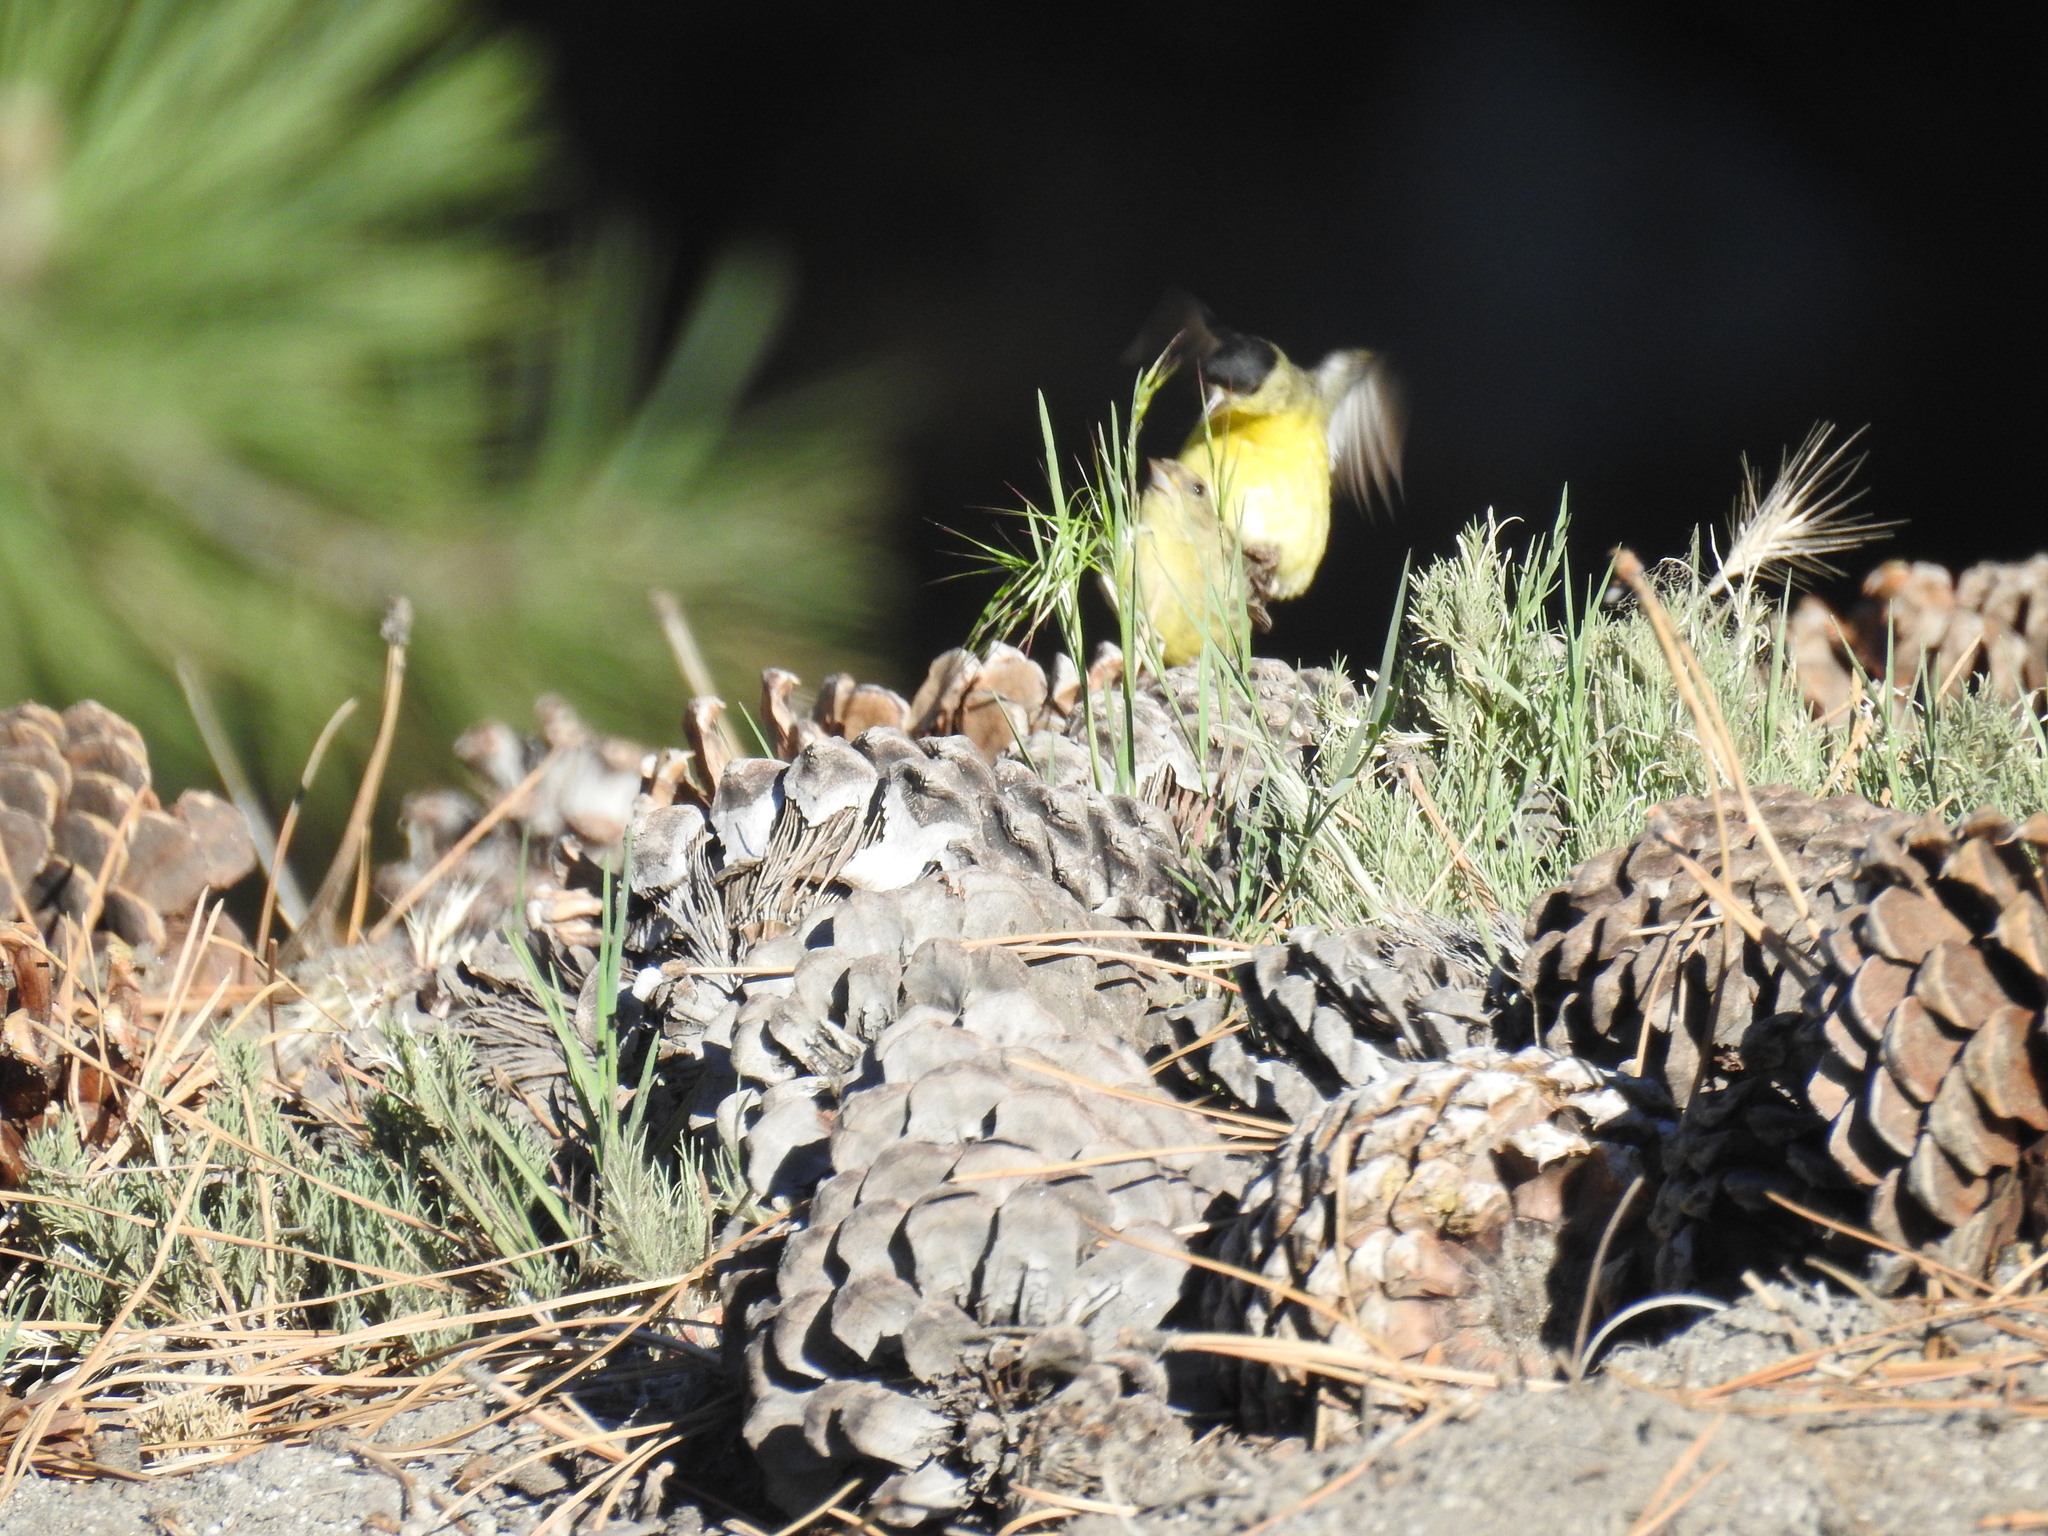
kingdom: Animalia
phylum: Chordata
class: Aves
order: Passeriformes
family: Fringillidae
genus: Spinus
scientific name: Spinus psaltria
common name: Lesser goldfinch
